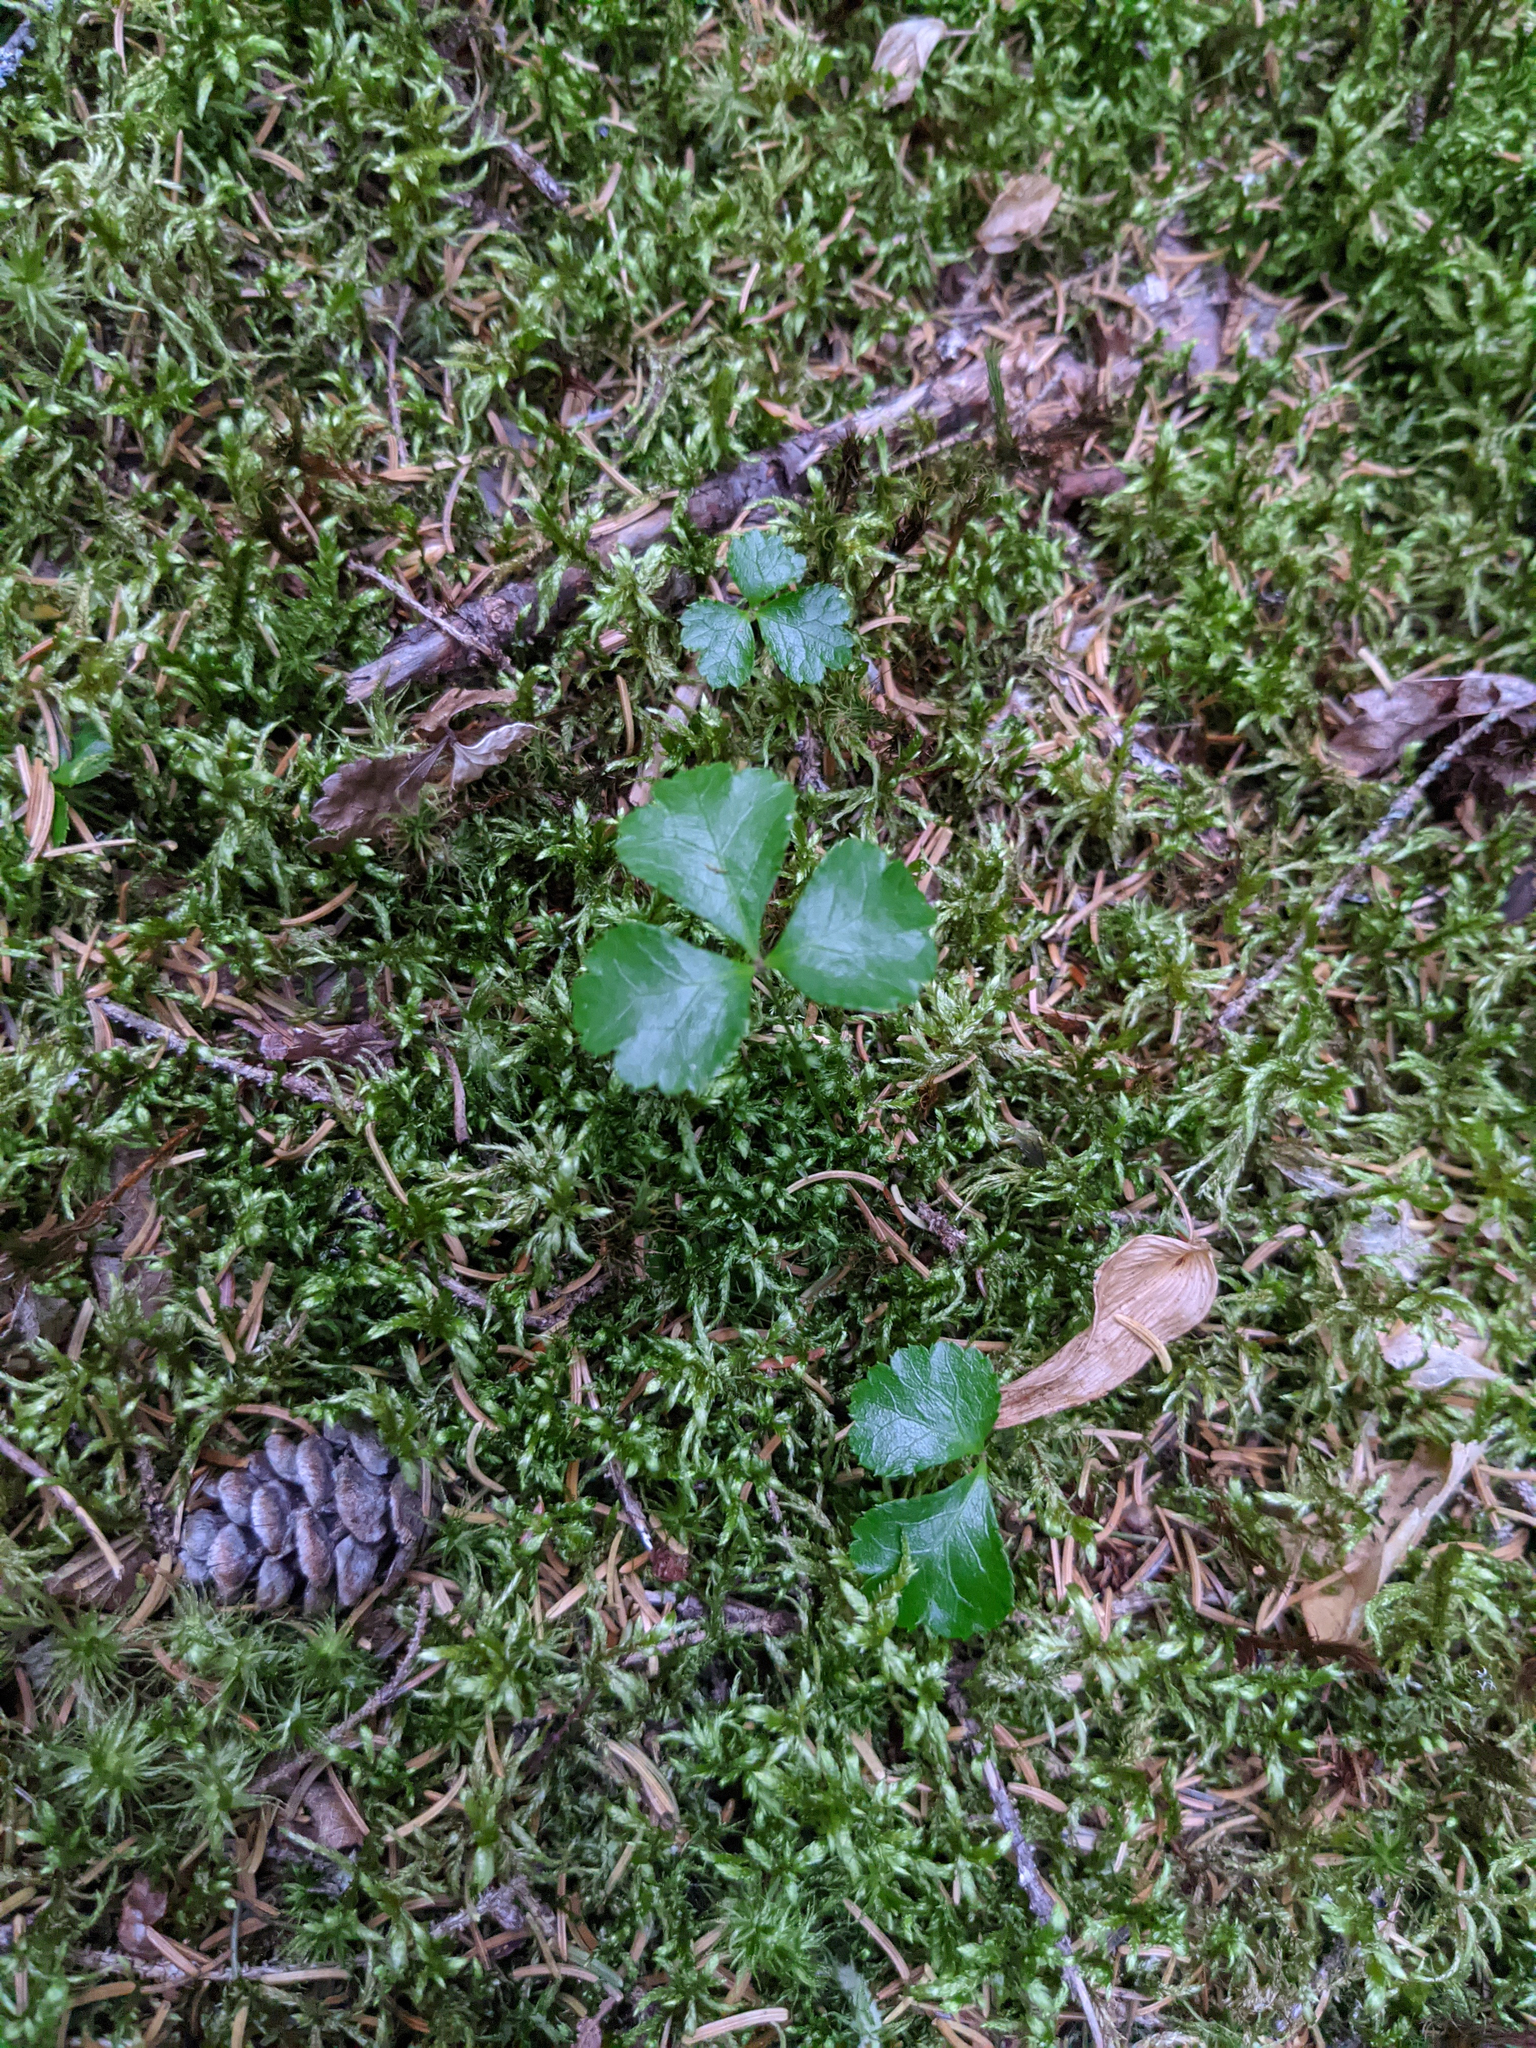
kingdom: Plantae
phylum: Tracheophyta
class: Magnoliopsida
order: Ranunculales
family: Ranunculaceae
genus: Coptis
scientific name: Coptis trifolia
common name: Canker-root
